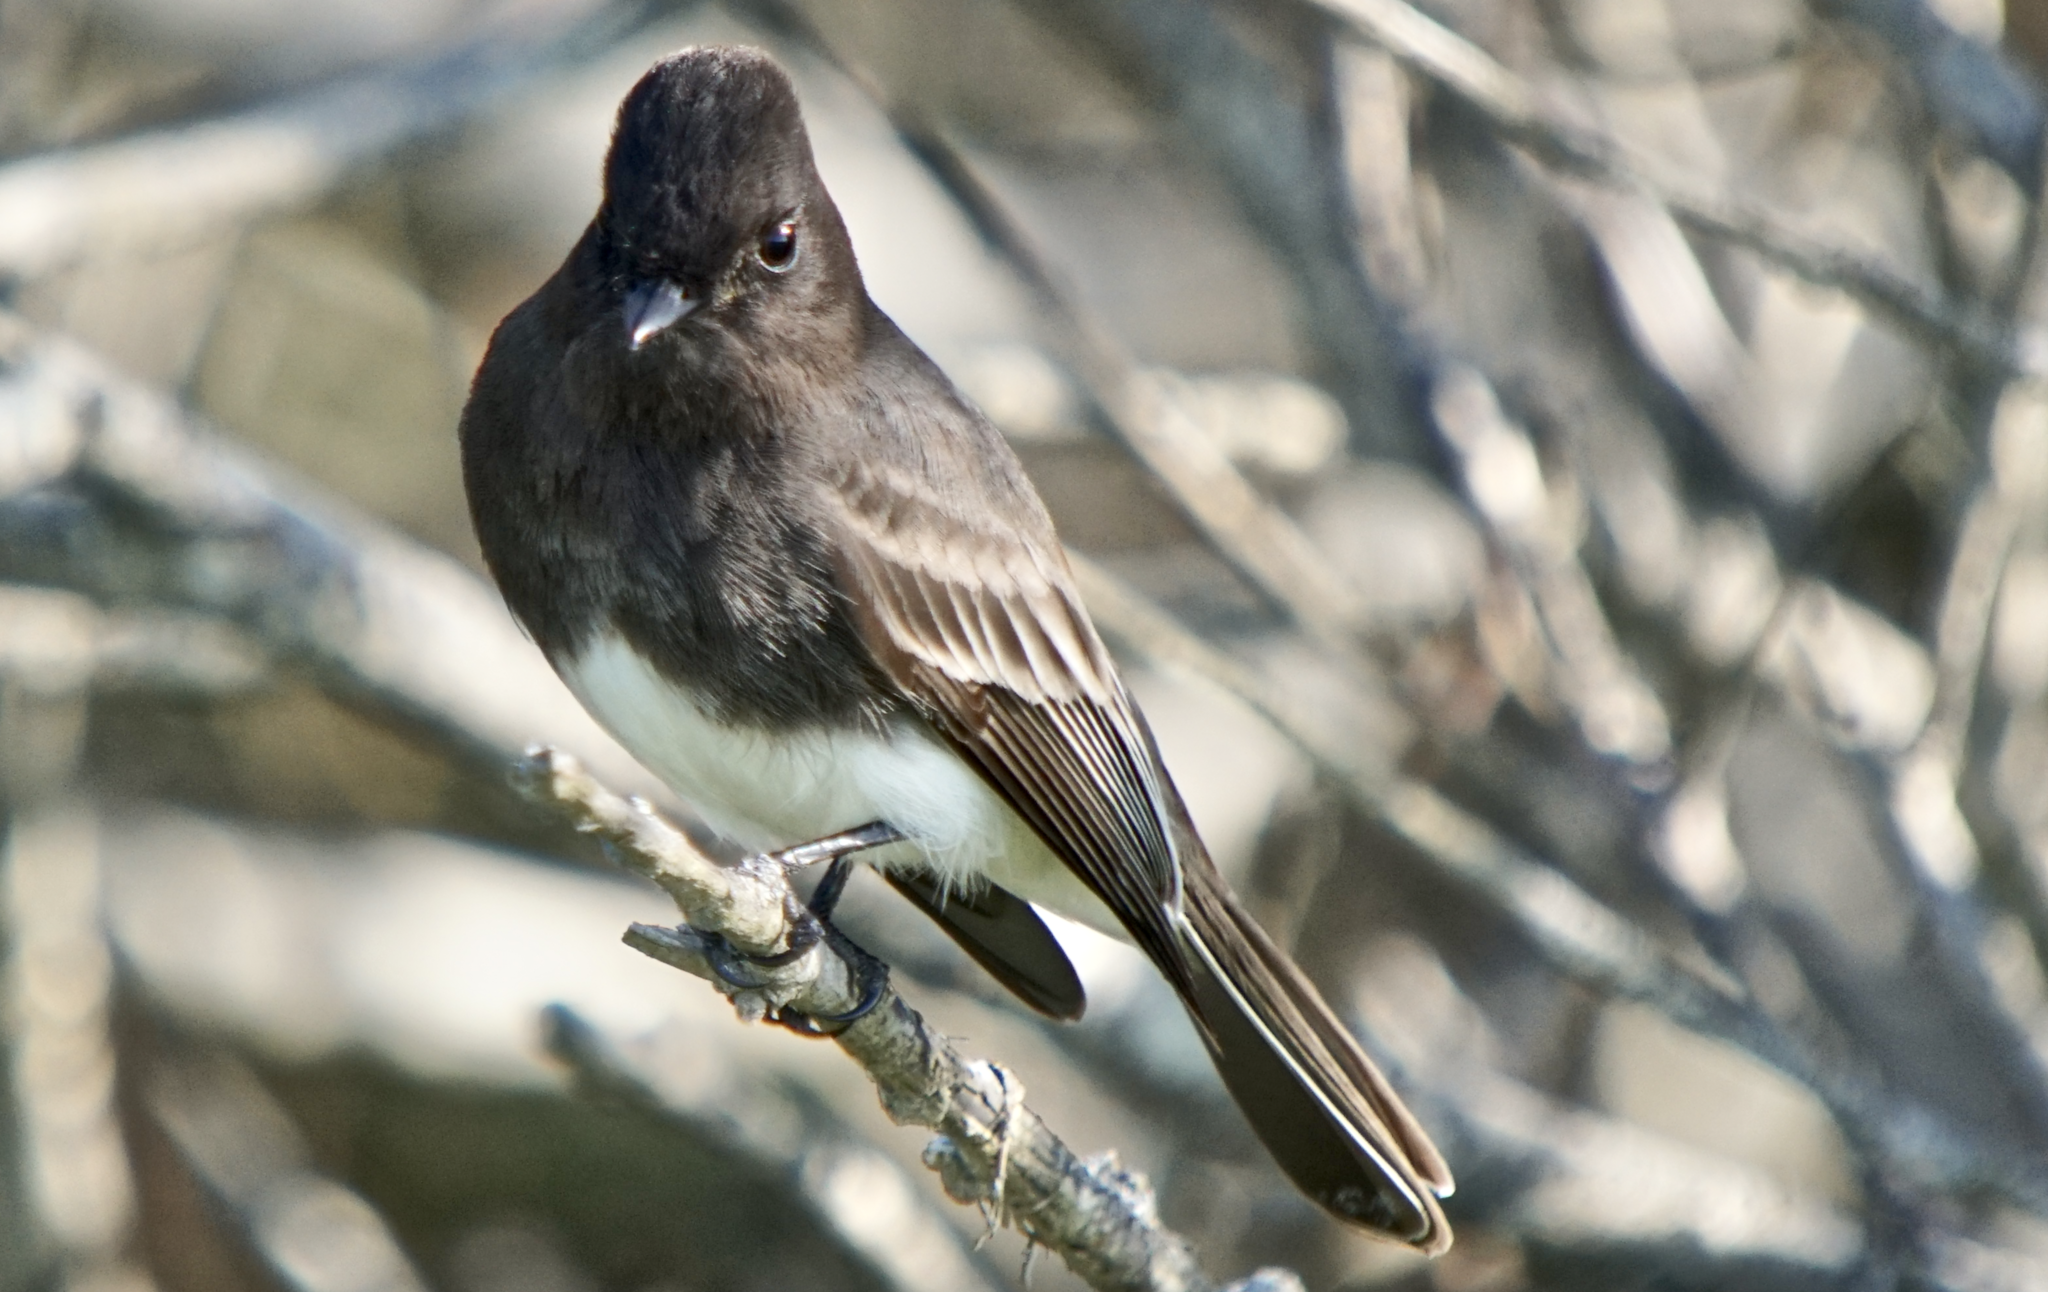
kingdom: Animalia
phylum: Chordata
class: Aves
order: Passeriformes
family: Tyrannidae
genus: Sayornis
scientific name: Sayornis nigricans
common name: Black phoebe
